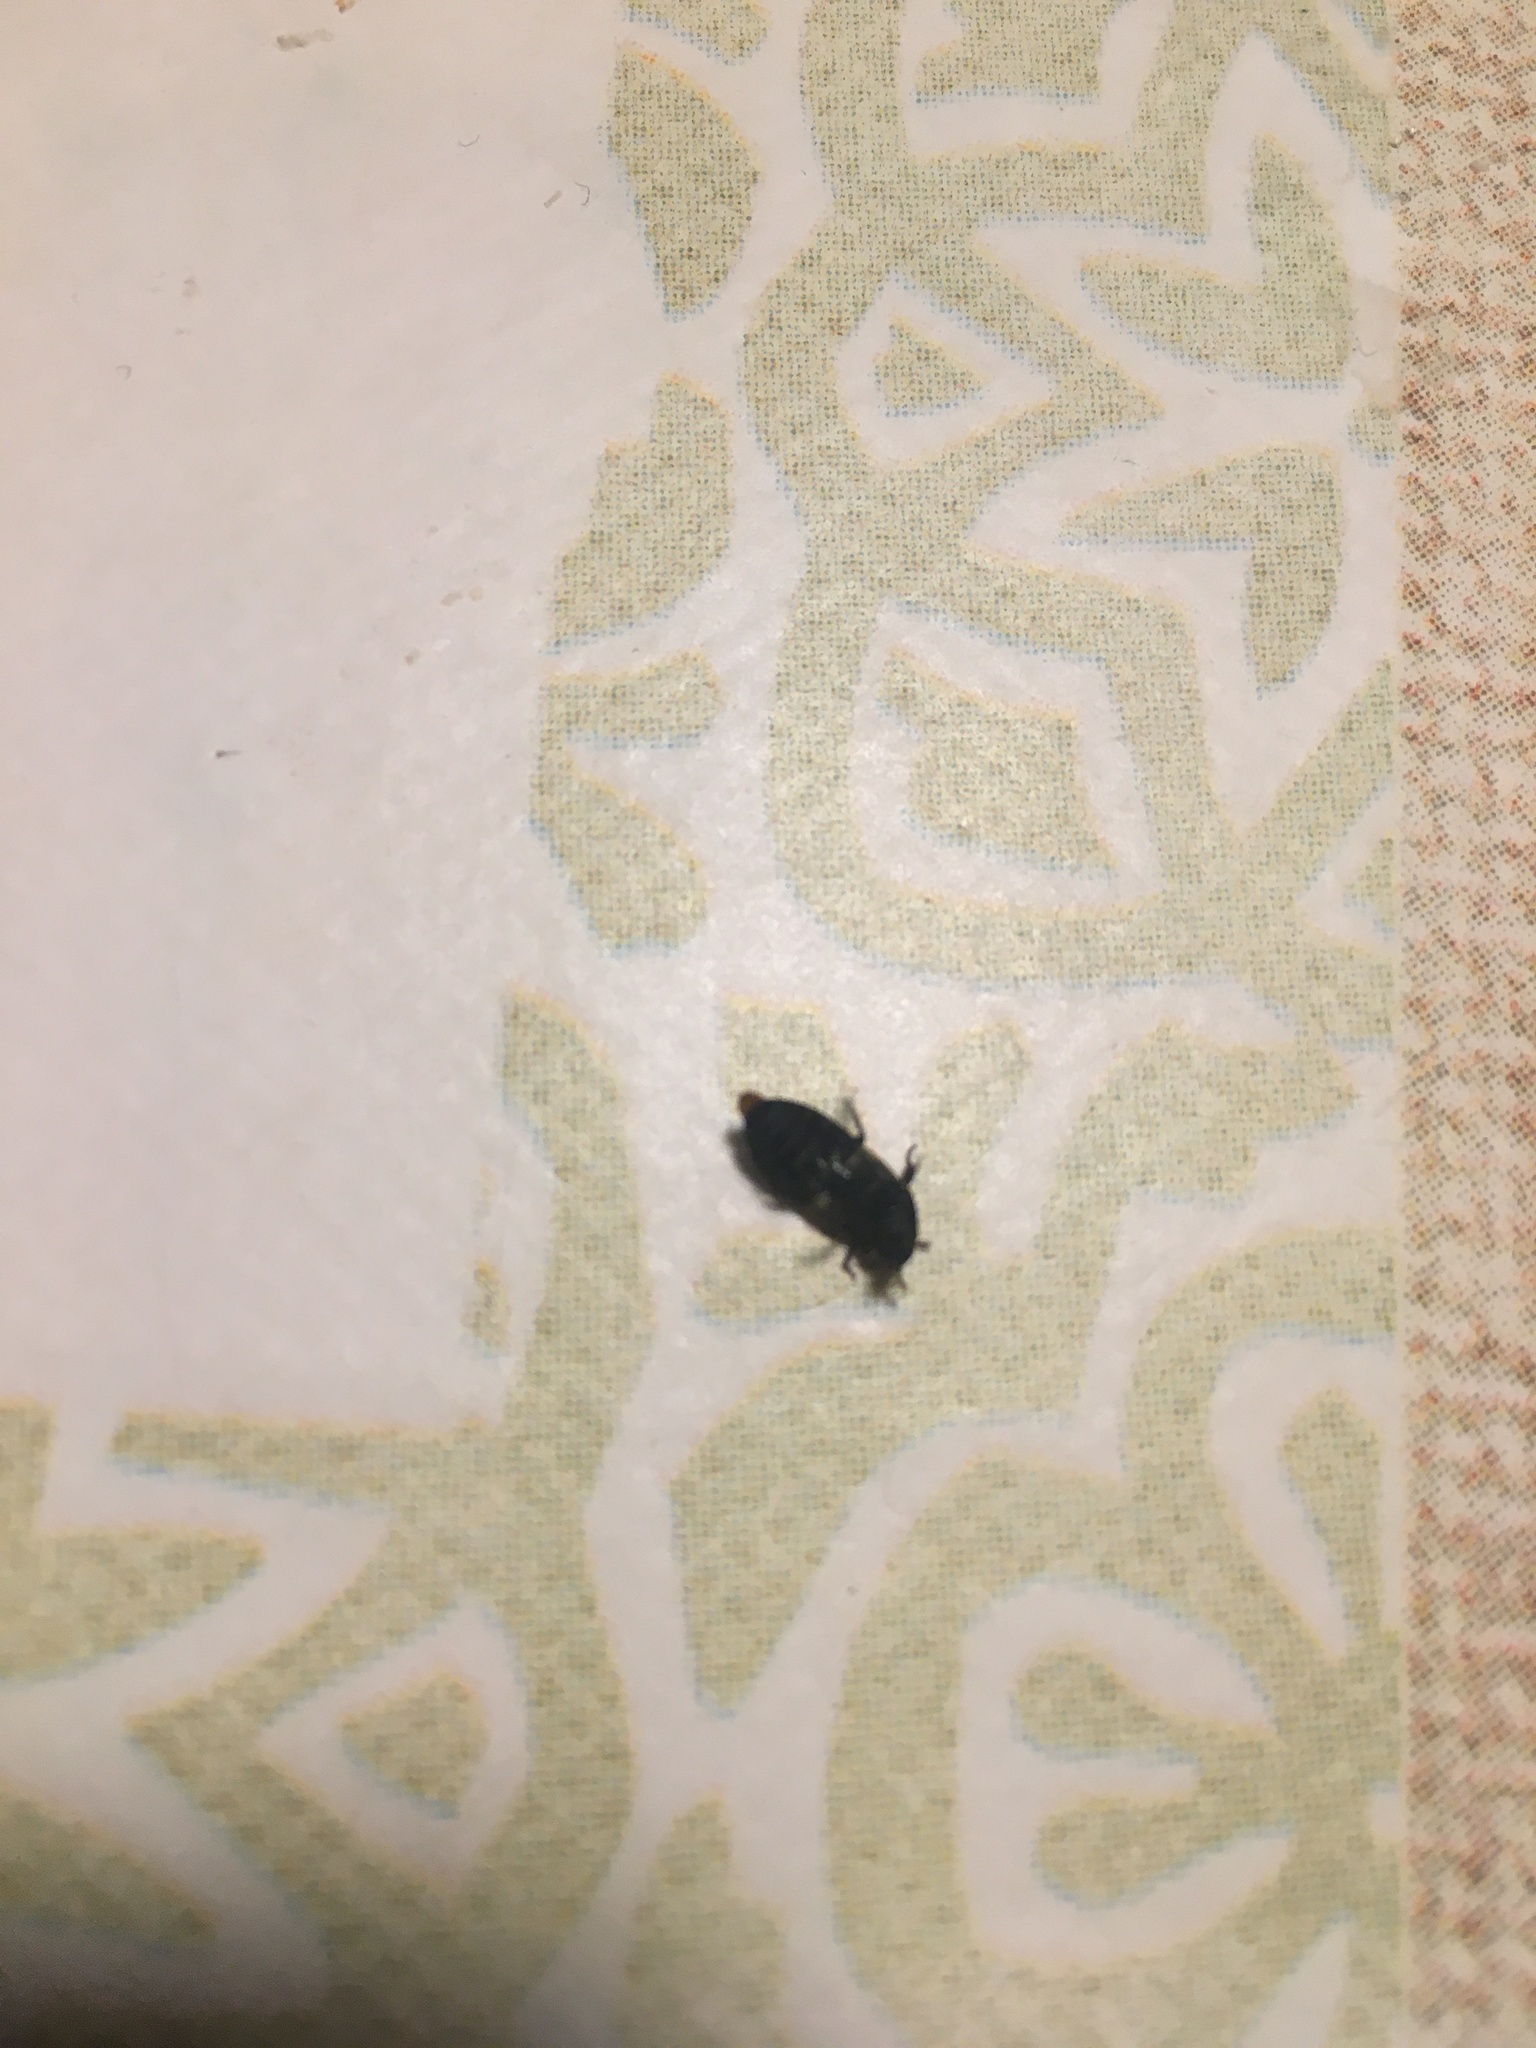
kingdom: Animalia
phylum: Arthropoda
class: Insecta
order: Coleoptera
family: Dermestidae
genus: Dermestes
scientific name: Dermestes lardarius
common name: Larder beetle
